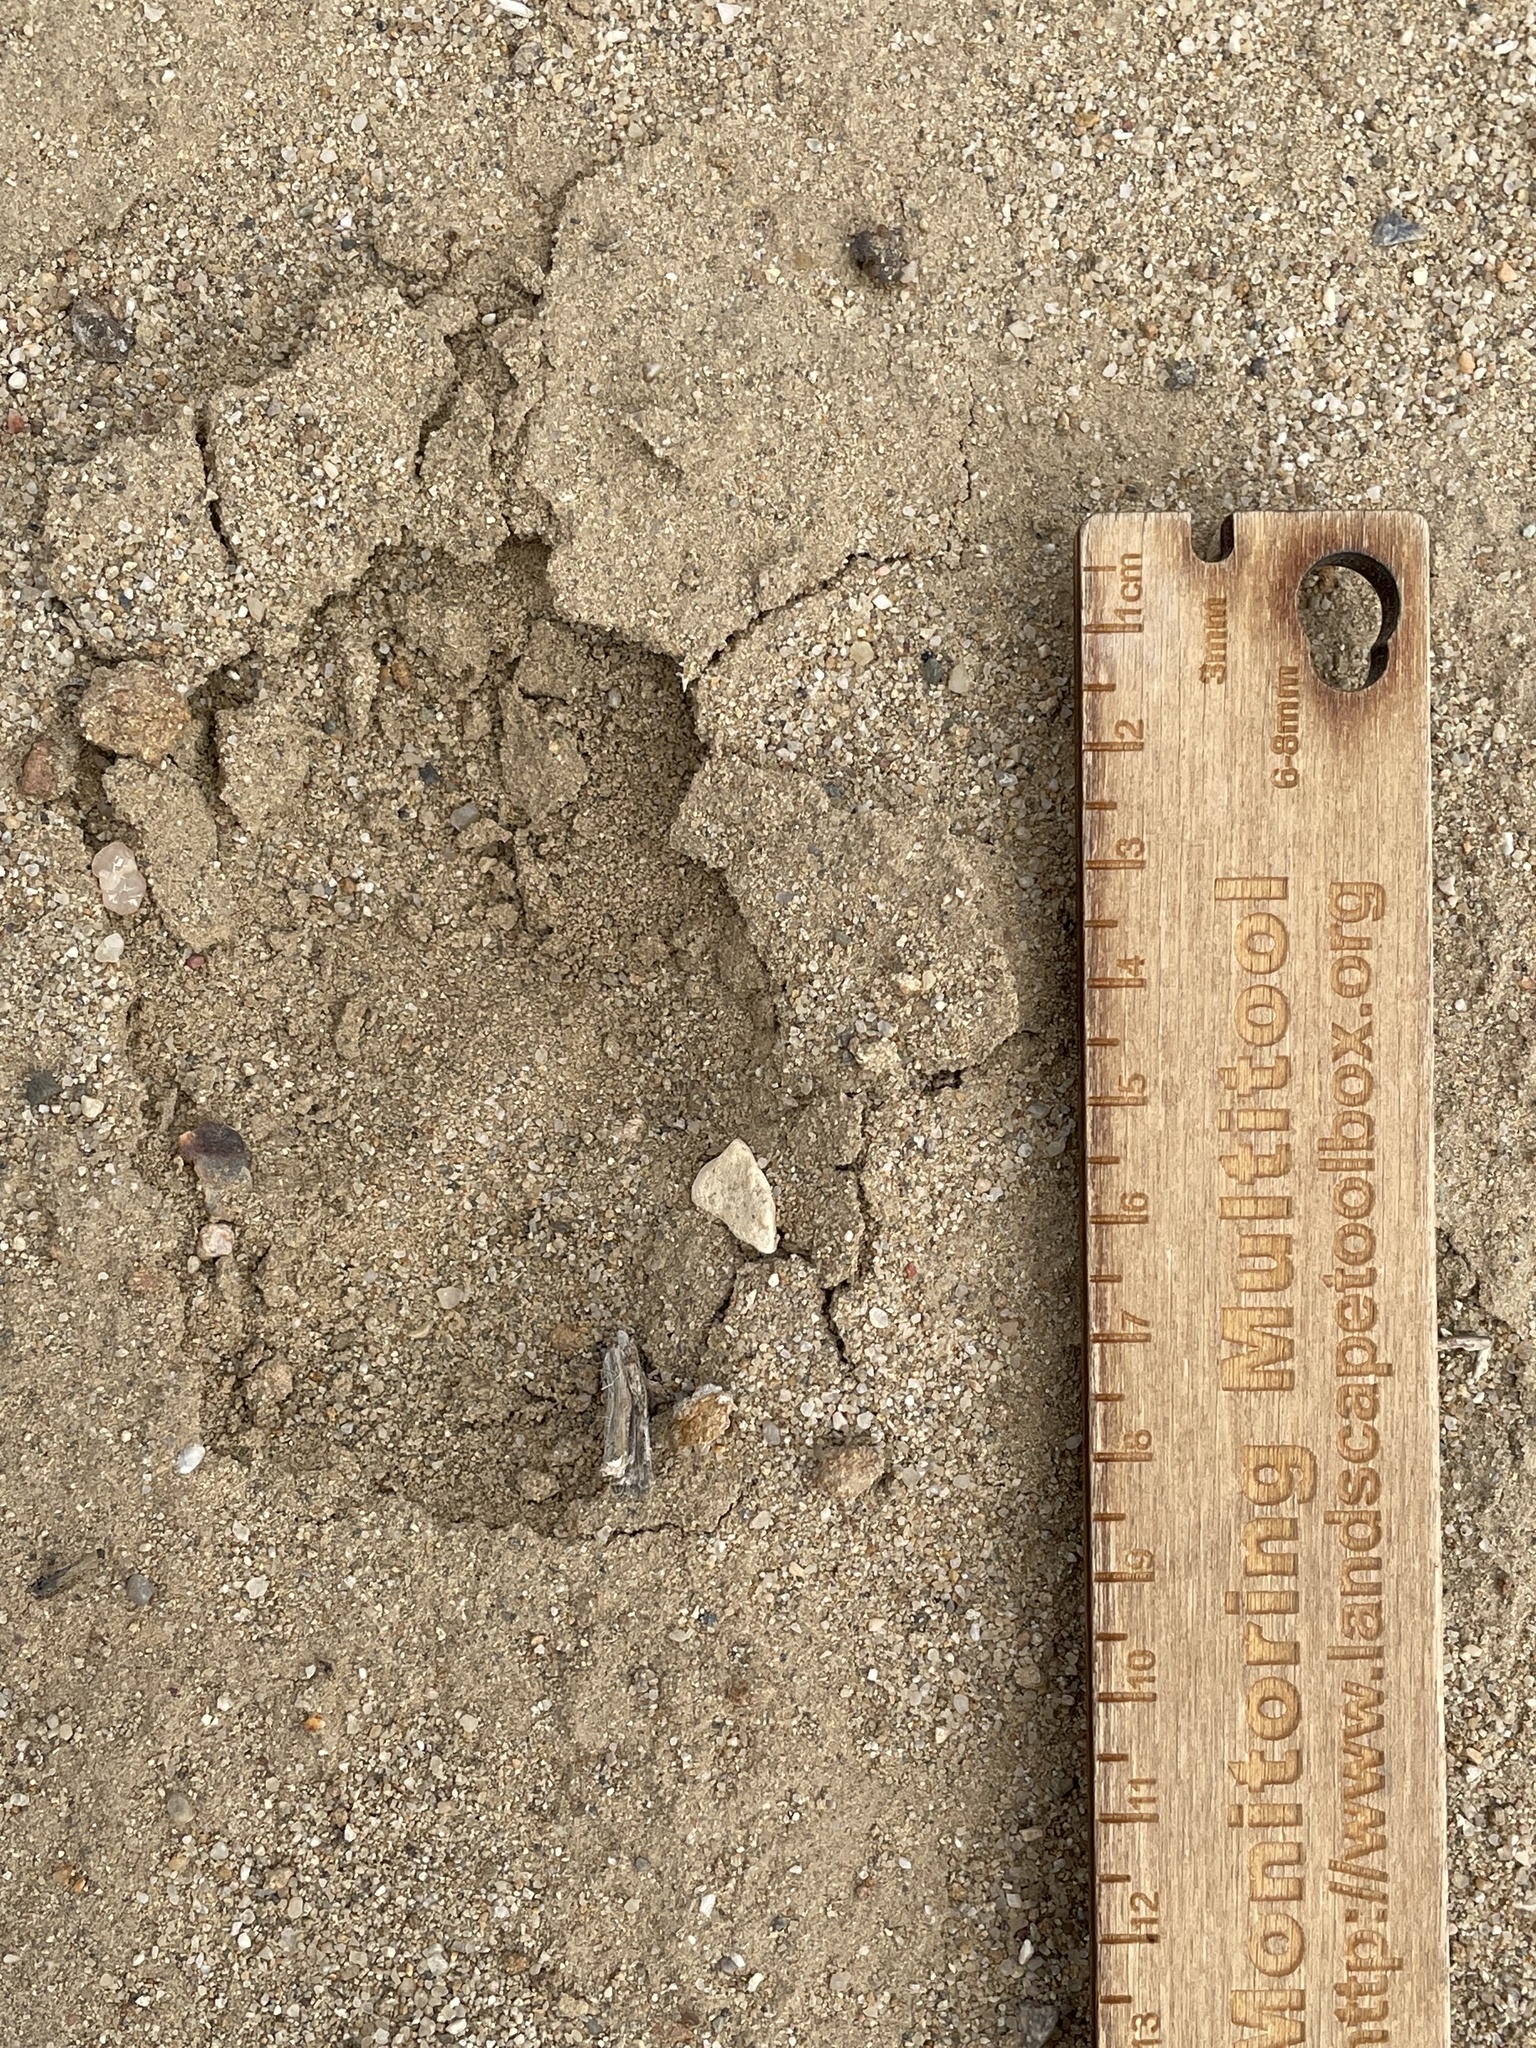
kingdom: Animalia
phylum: Chordata
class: Mammalia
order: Carnivora
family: Canidae
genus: Canis
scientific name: Canis latrans
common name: Coyote
